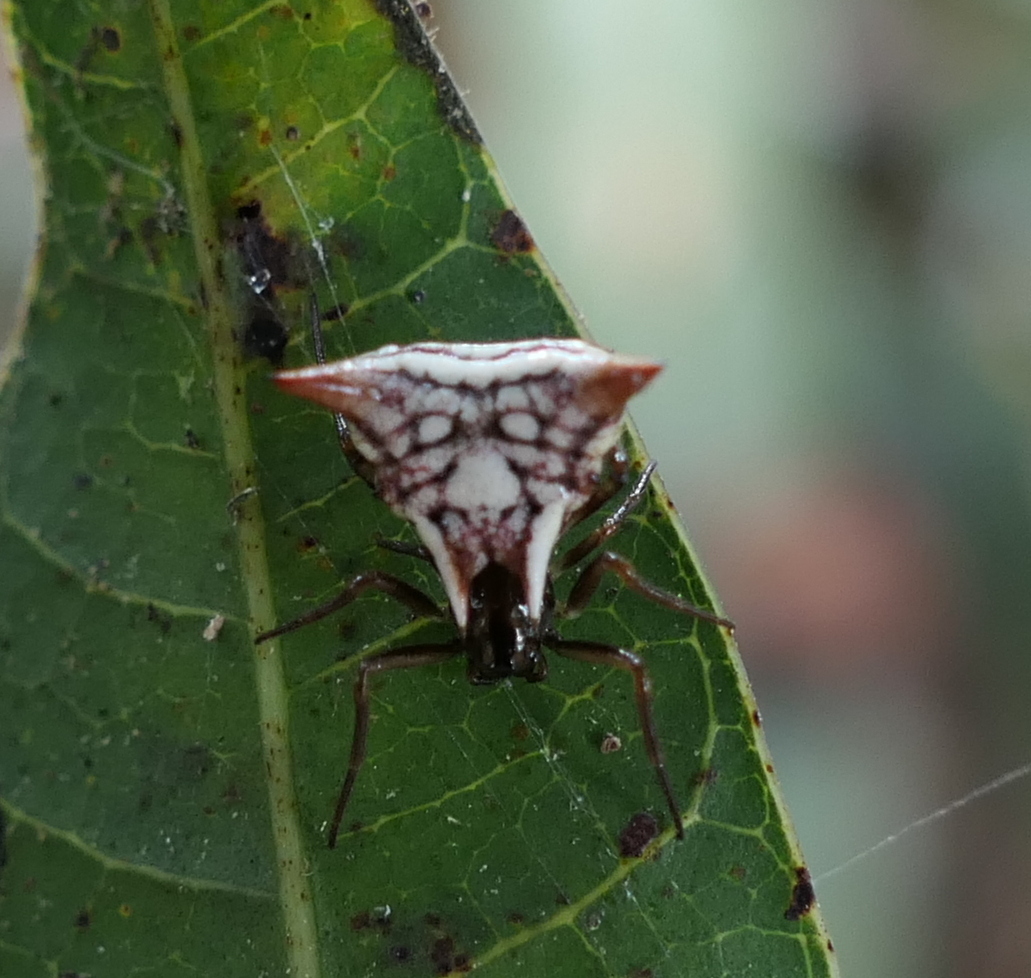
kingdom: Animalia
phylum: Arthropoda
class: Arachnida
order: Araneae
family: Araneidae
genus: Micrathena
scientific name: Micrathena evansi
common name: Orb weavers
